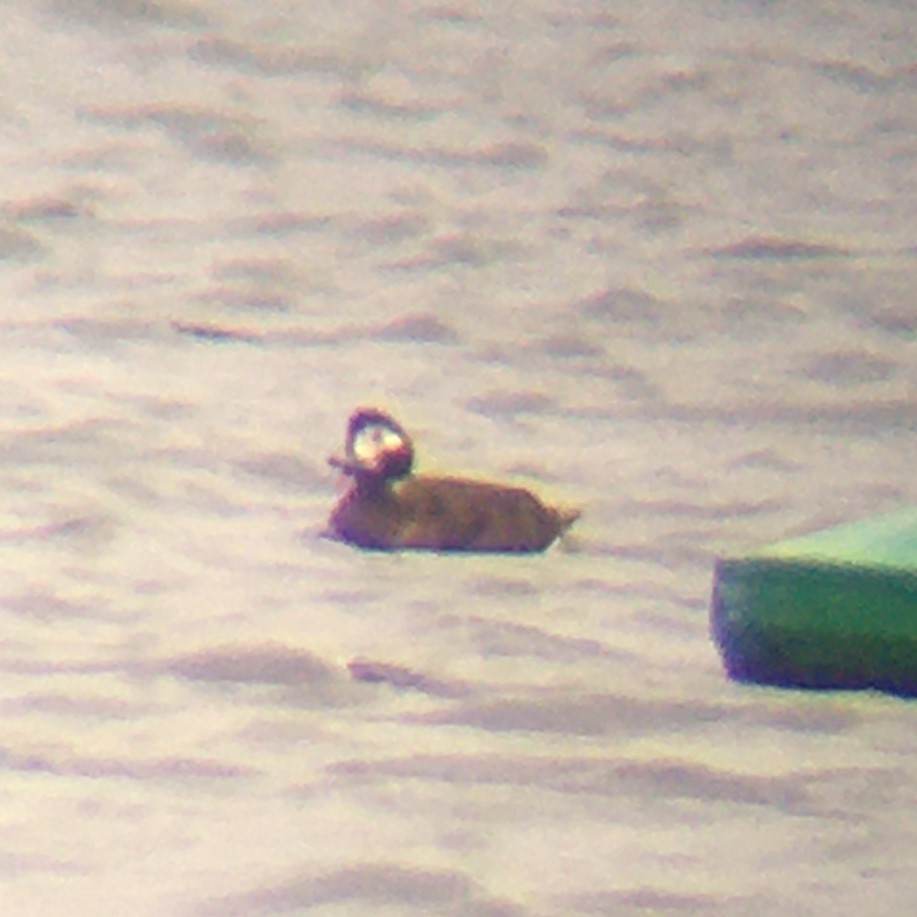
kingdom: Animalia
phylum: Chordata
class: Aves
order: Anseriformes
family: Anatidae
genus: Clangula
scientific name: Clangula hyemalis
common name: Long-tailed duck
